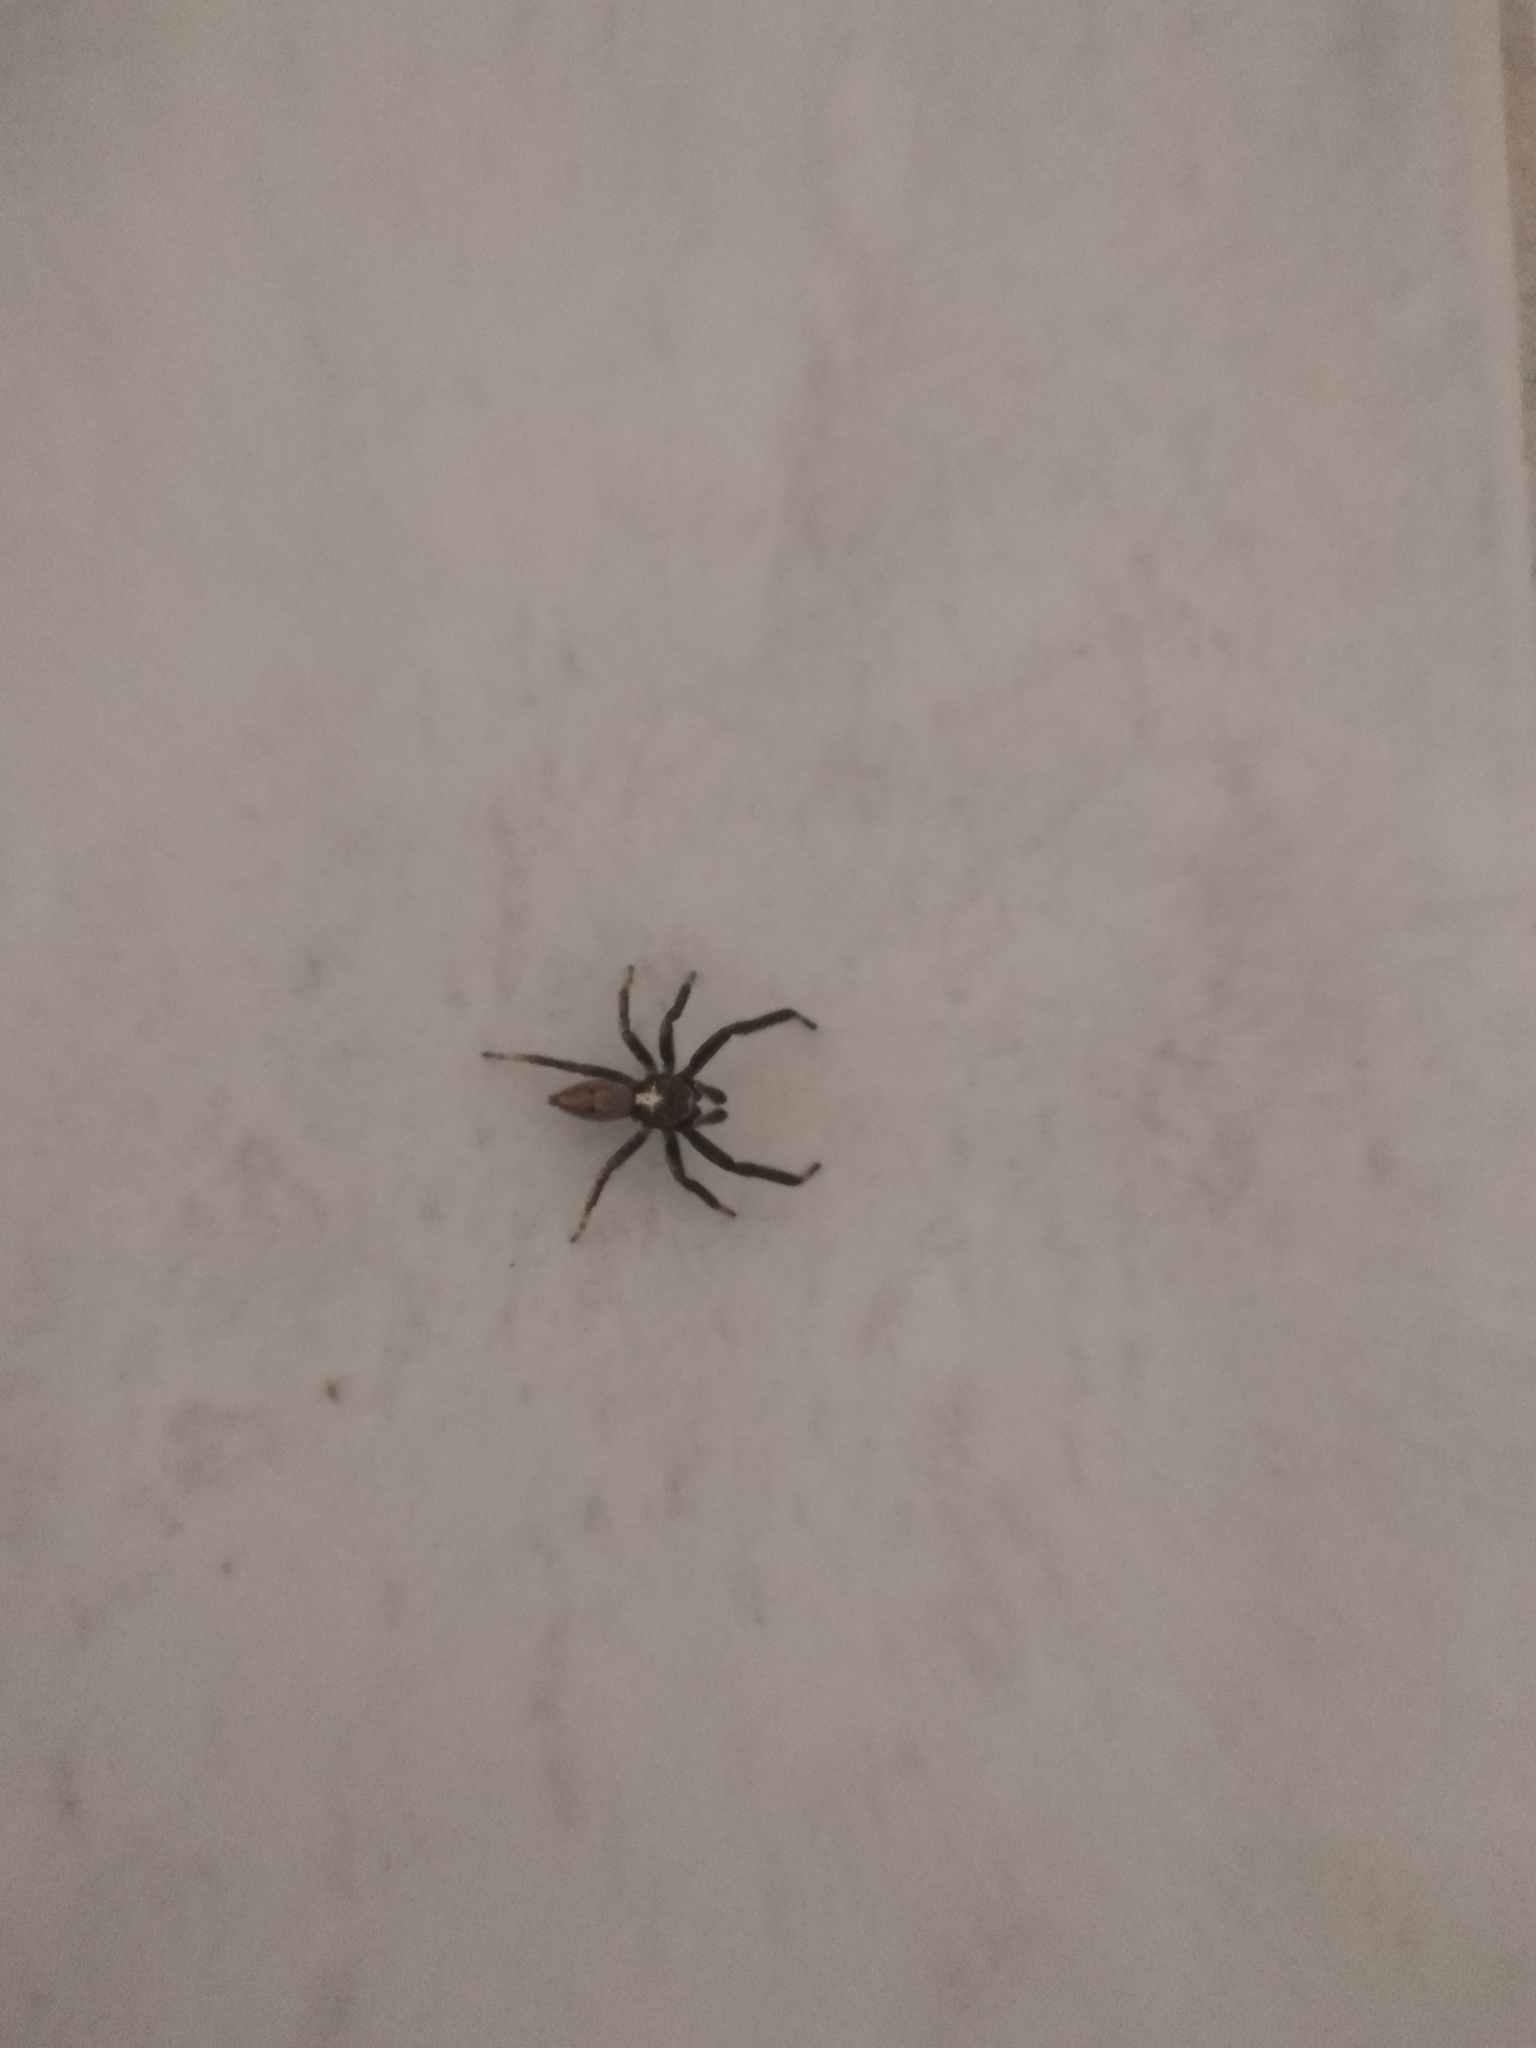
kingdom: Animalia
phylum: Arthropoda
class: Arachnida
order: Araneae
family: Salticidae
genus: Asaphobelis
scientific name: Asaphobelis physonychus
